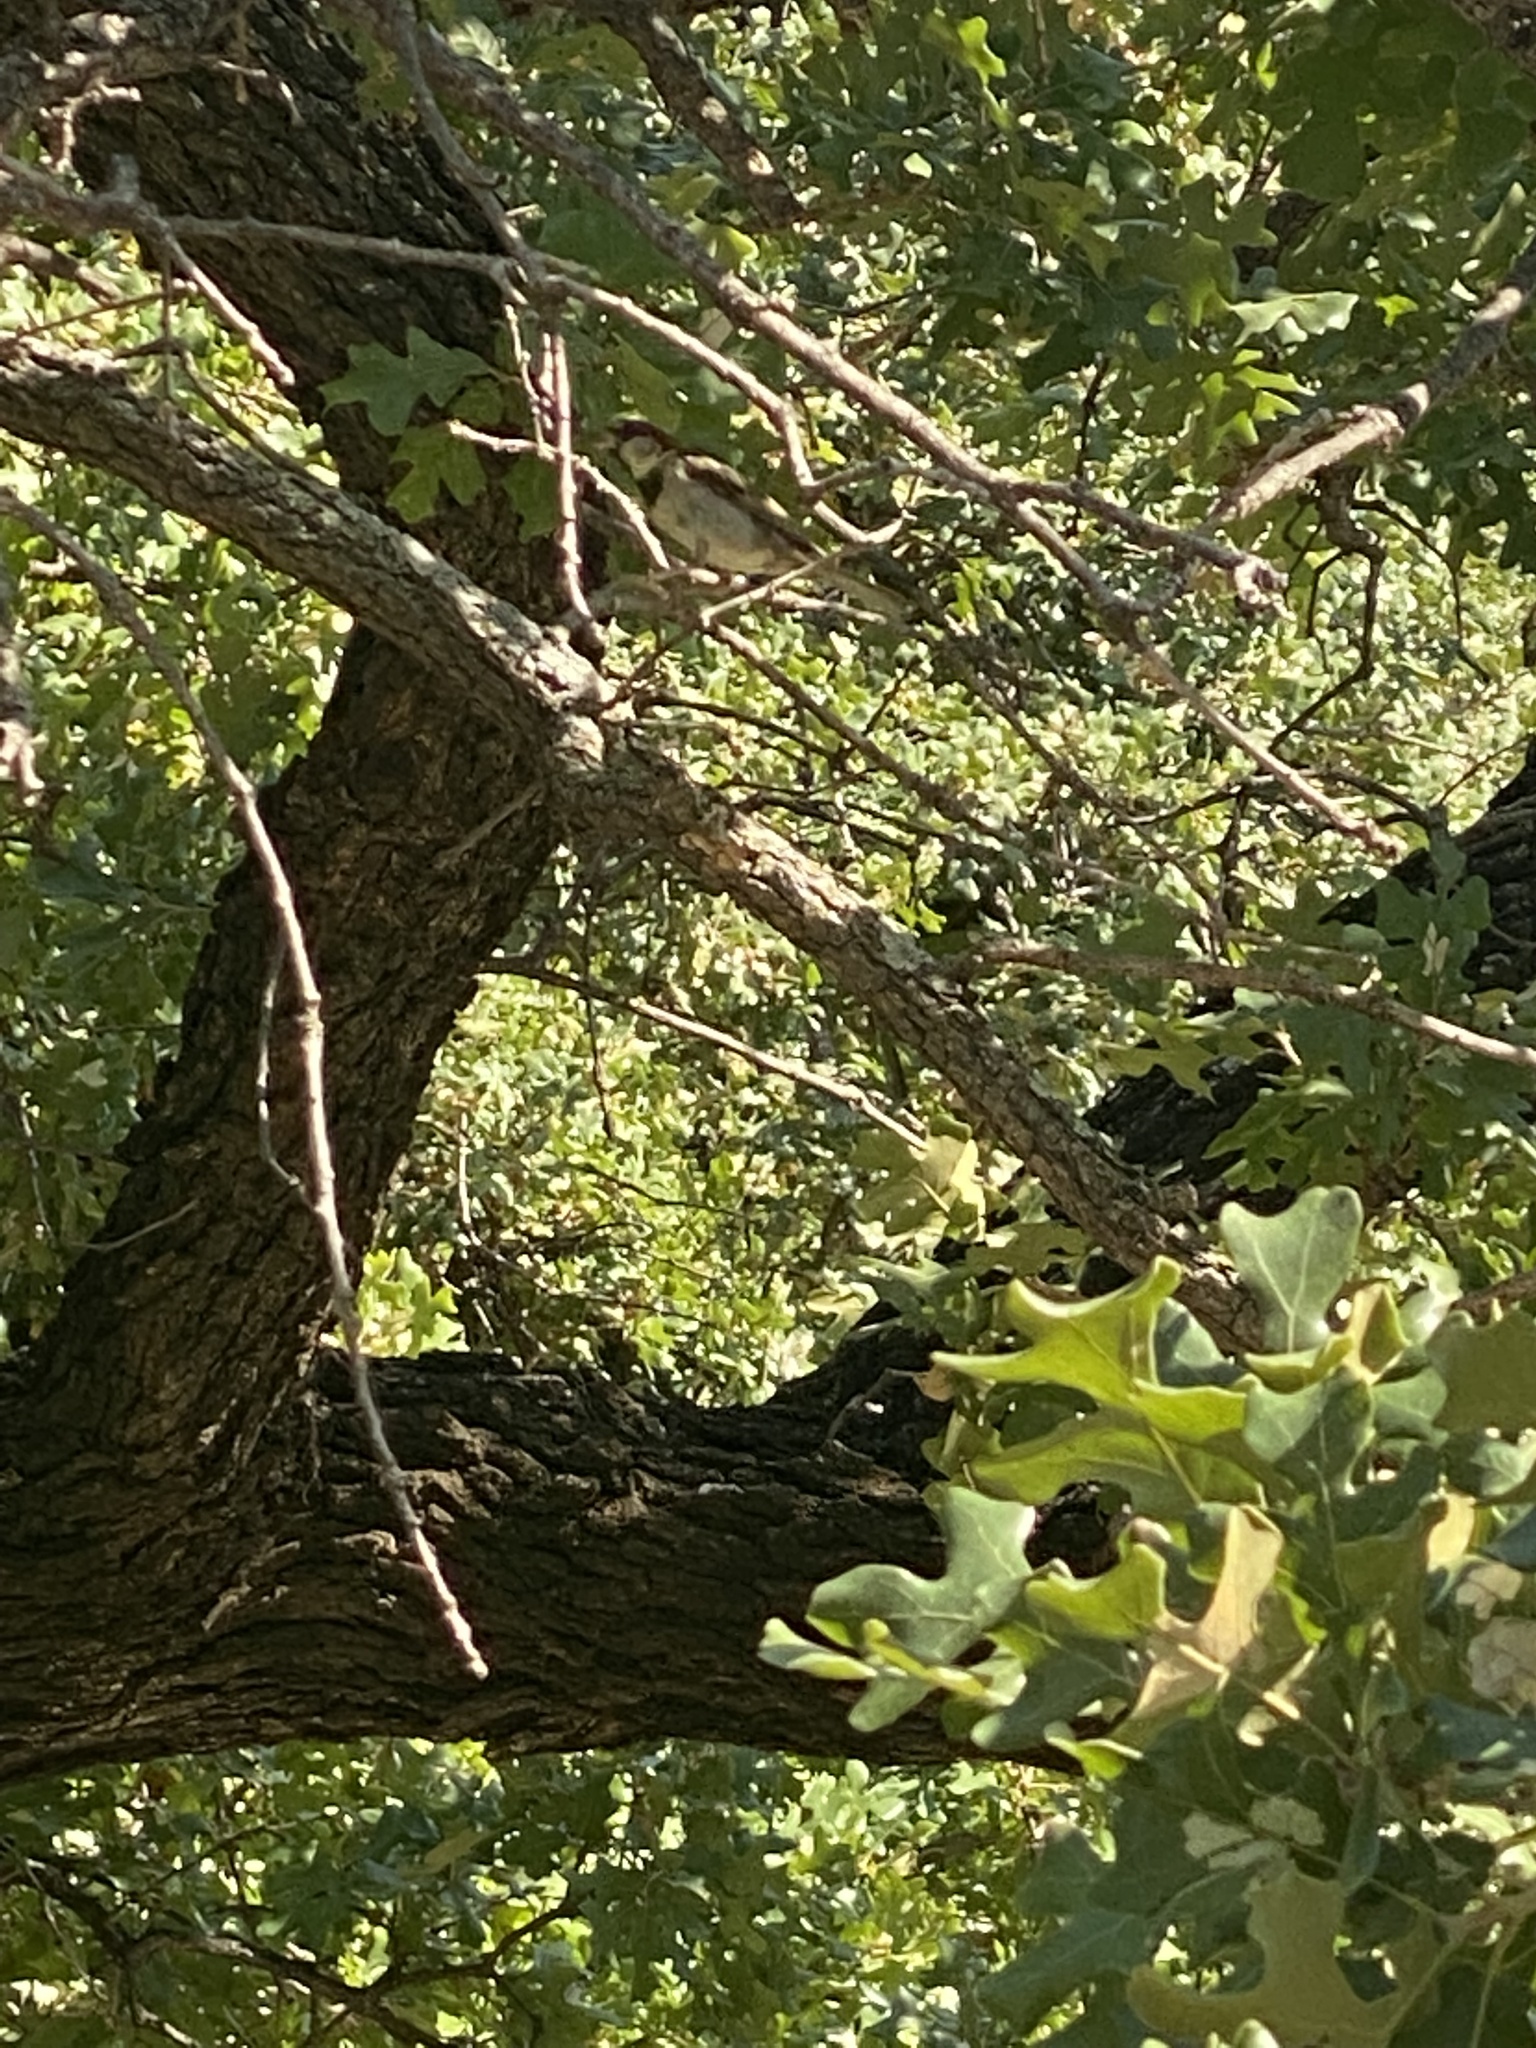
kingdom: Animalia
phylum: Chordata
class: Aves
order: Passeriformes
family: Passeridae
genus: Passer
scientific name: Passer domesticus
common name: House sparrow
